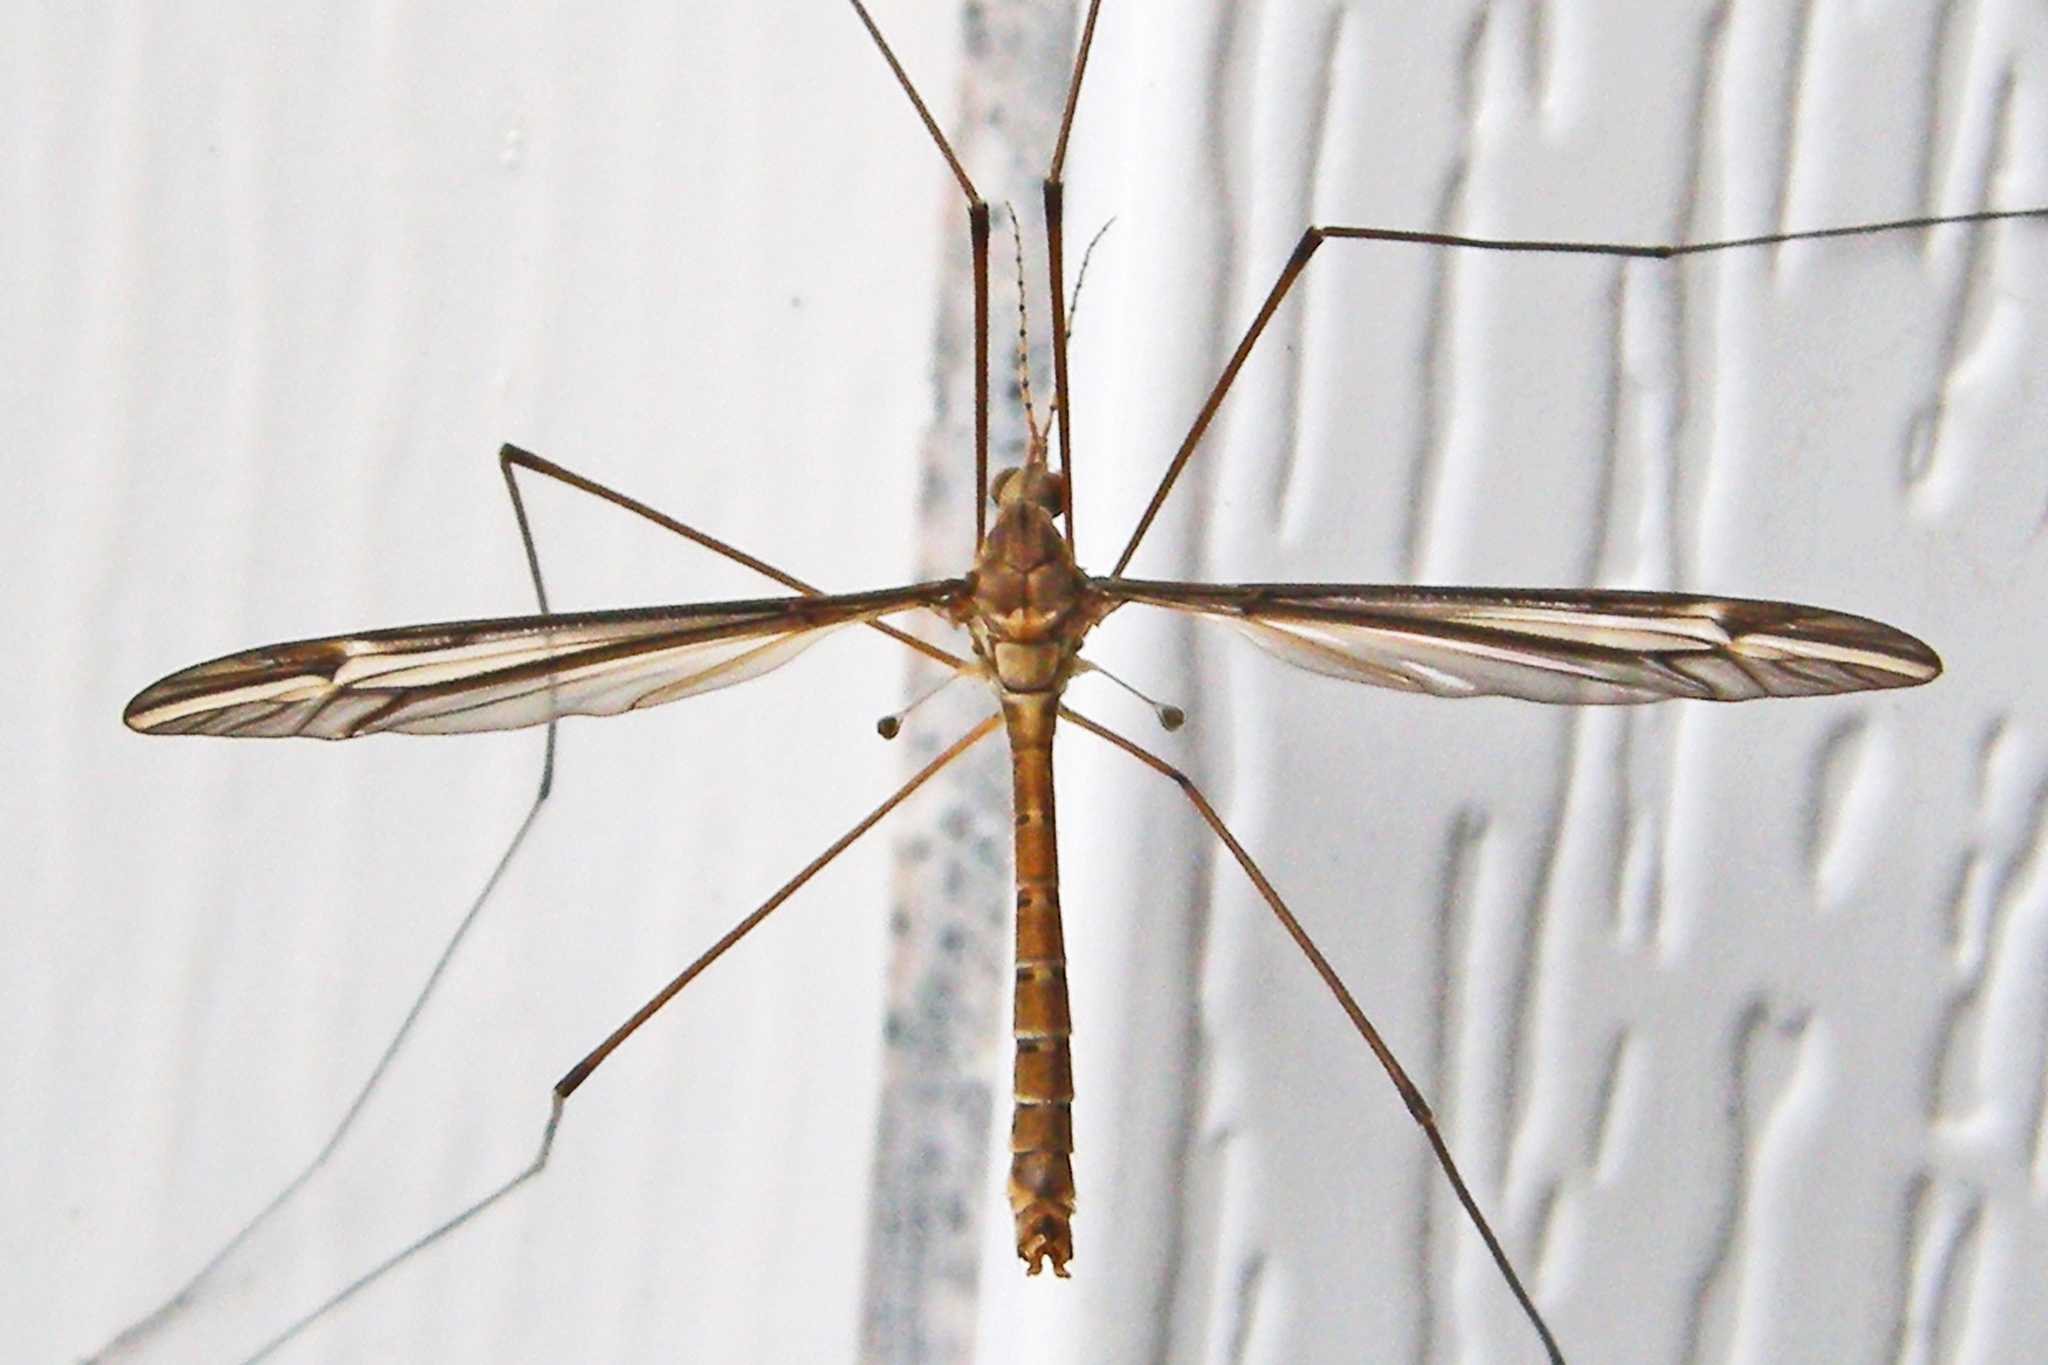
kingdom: Animalia
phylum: Arthropoda
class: Insecta
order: Diptera
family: Tipulidae
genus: Tipula
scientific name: Tipula furca
